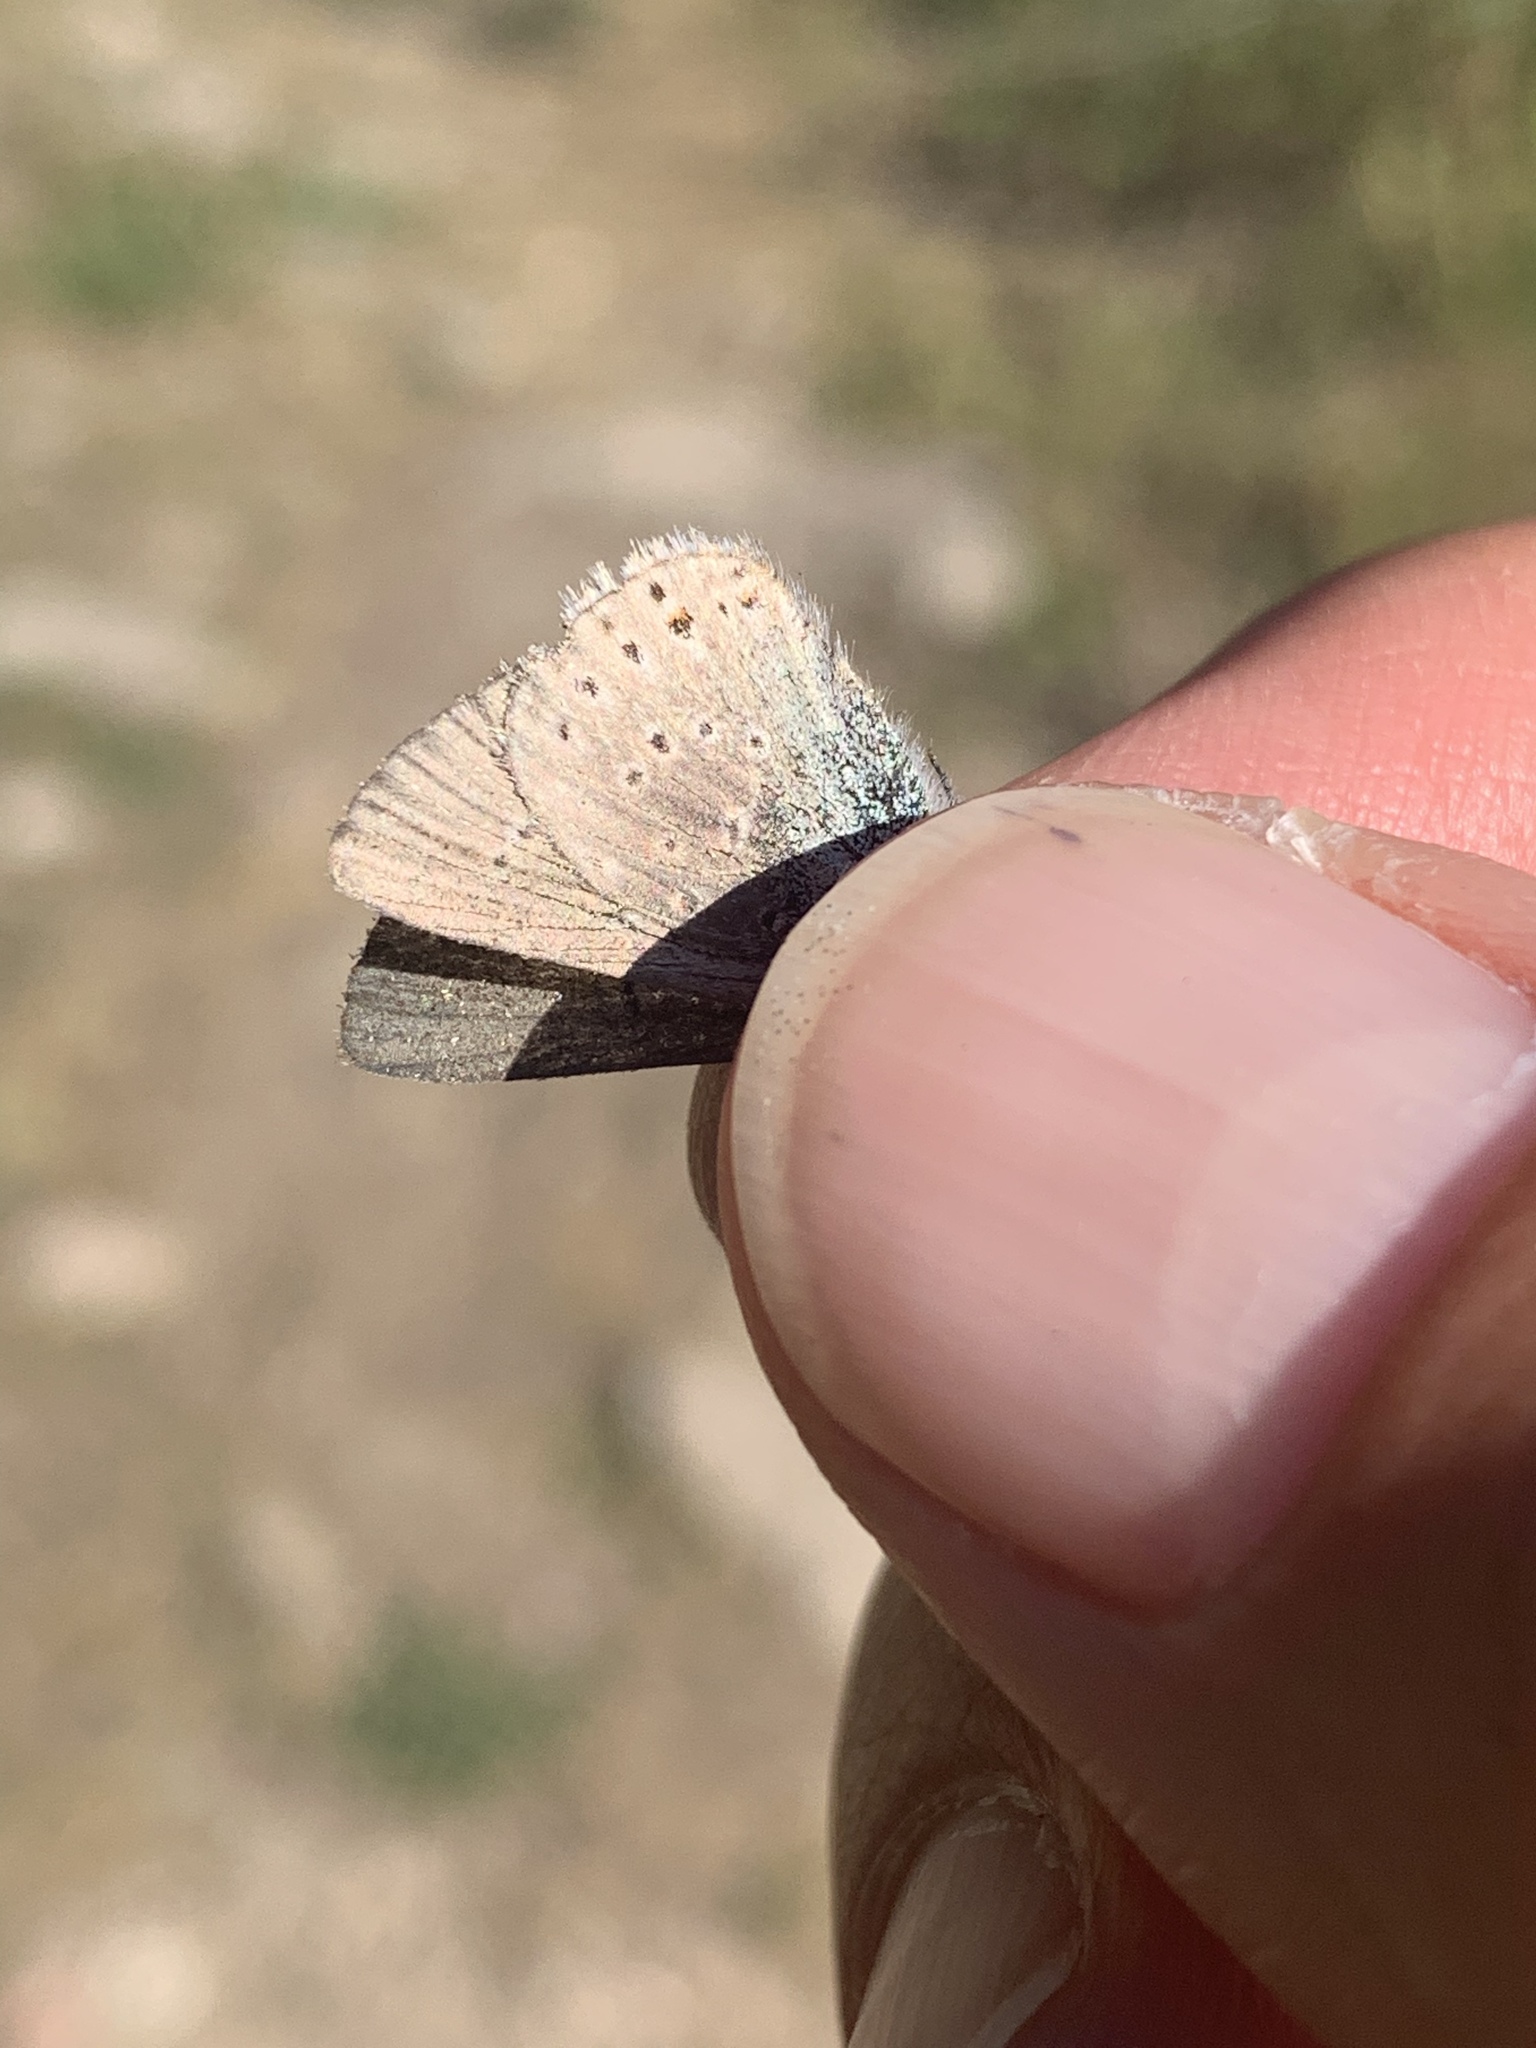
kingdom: Animalia
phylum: Arthropoda
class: Insecta
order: Lepidoptera
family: Lycaenidae
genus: Icaricia
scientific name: Icaricia saepiolus
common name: Greenish blue
